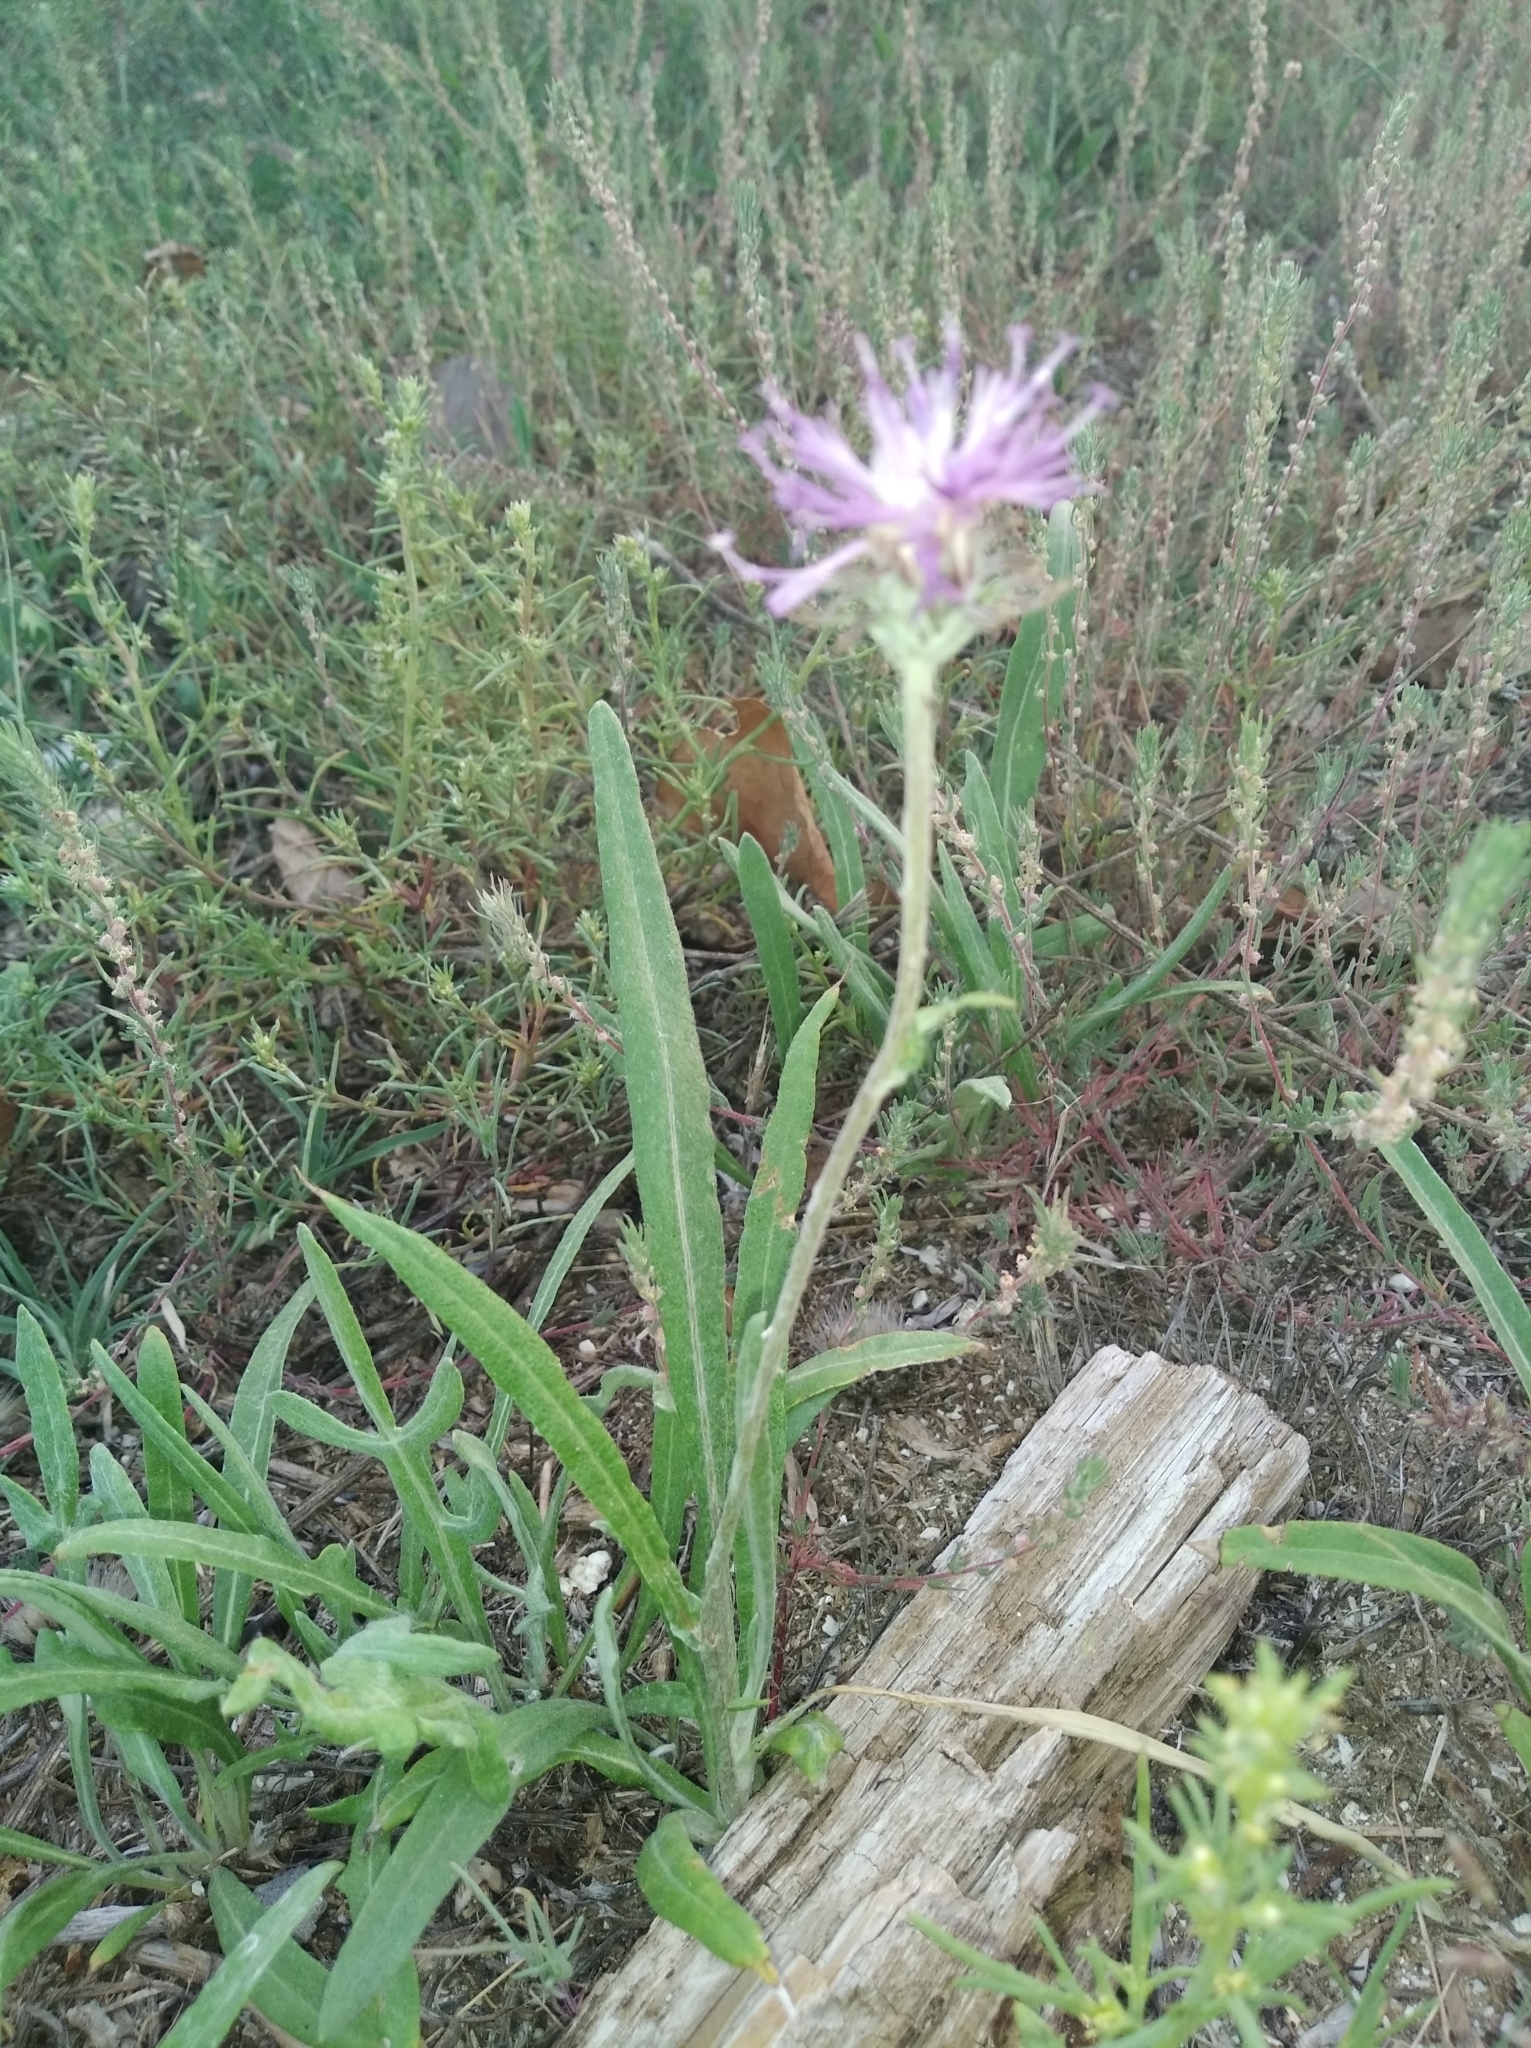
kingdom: Plantae
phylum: Tracheophyta
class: Magnoliopsida
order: Asterales
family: Asteraceae
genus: Jurinea
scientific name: Jurinea longifolia
